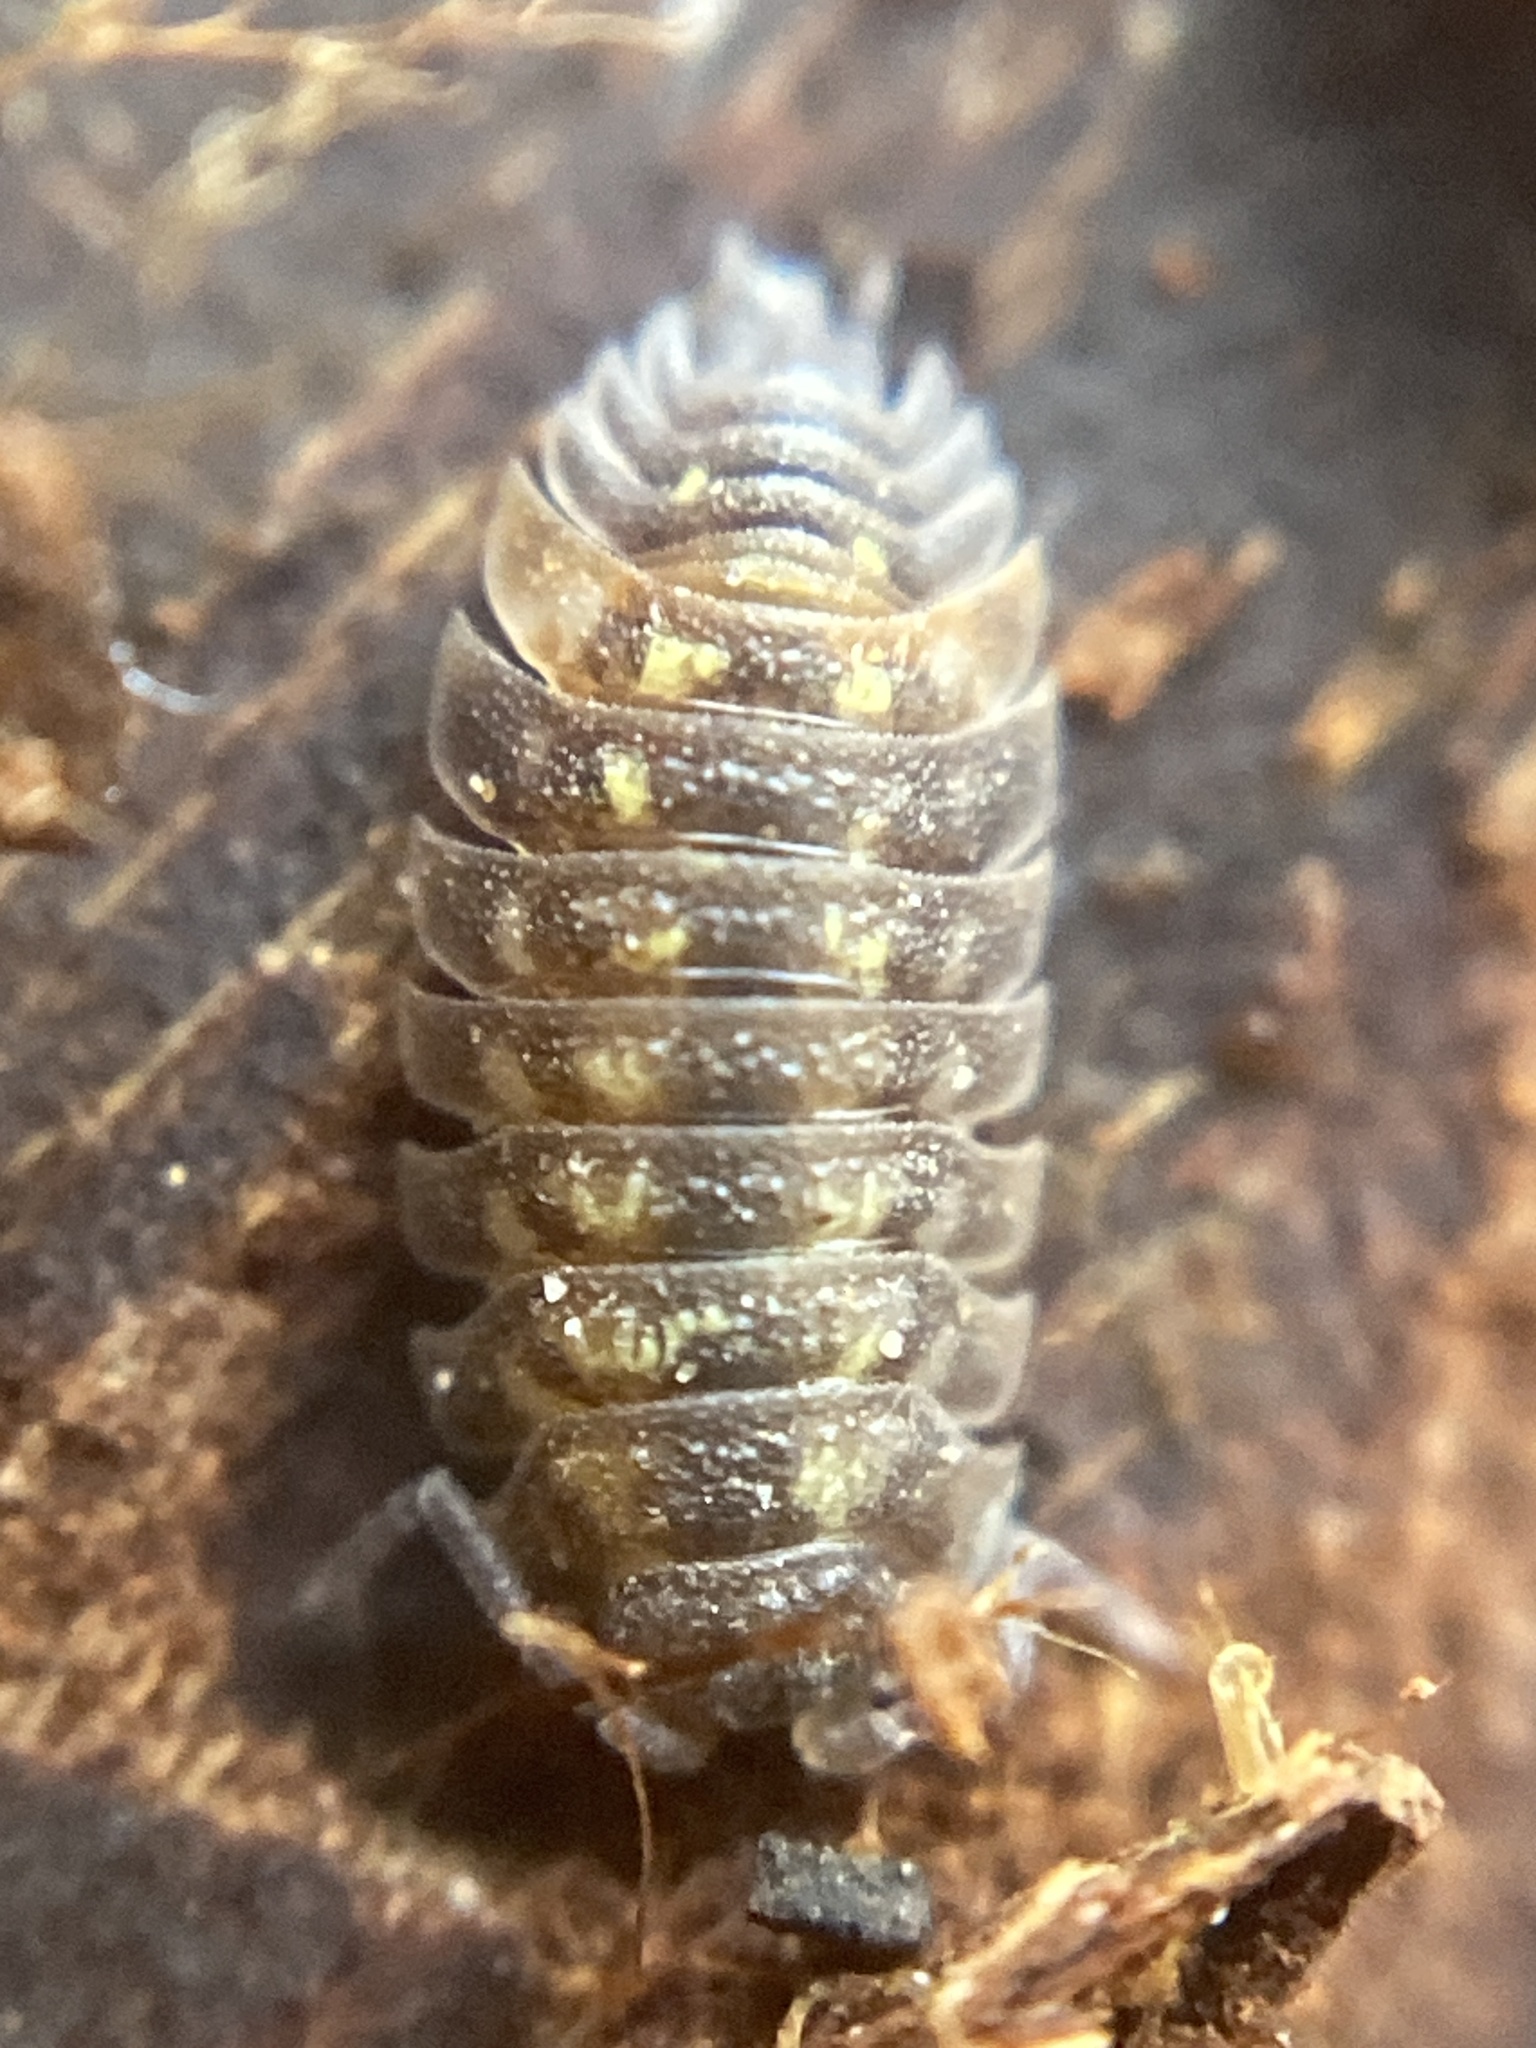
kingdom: Animalia
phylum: Arthropoda
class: Malacostraca
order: Isopoda
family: Oniscidae
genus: Oniscus
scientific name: Oniscus asellus
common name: Common shiny woodlouse
